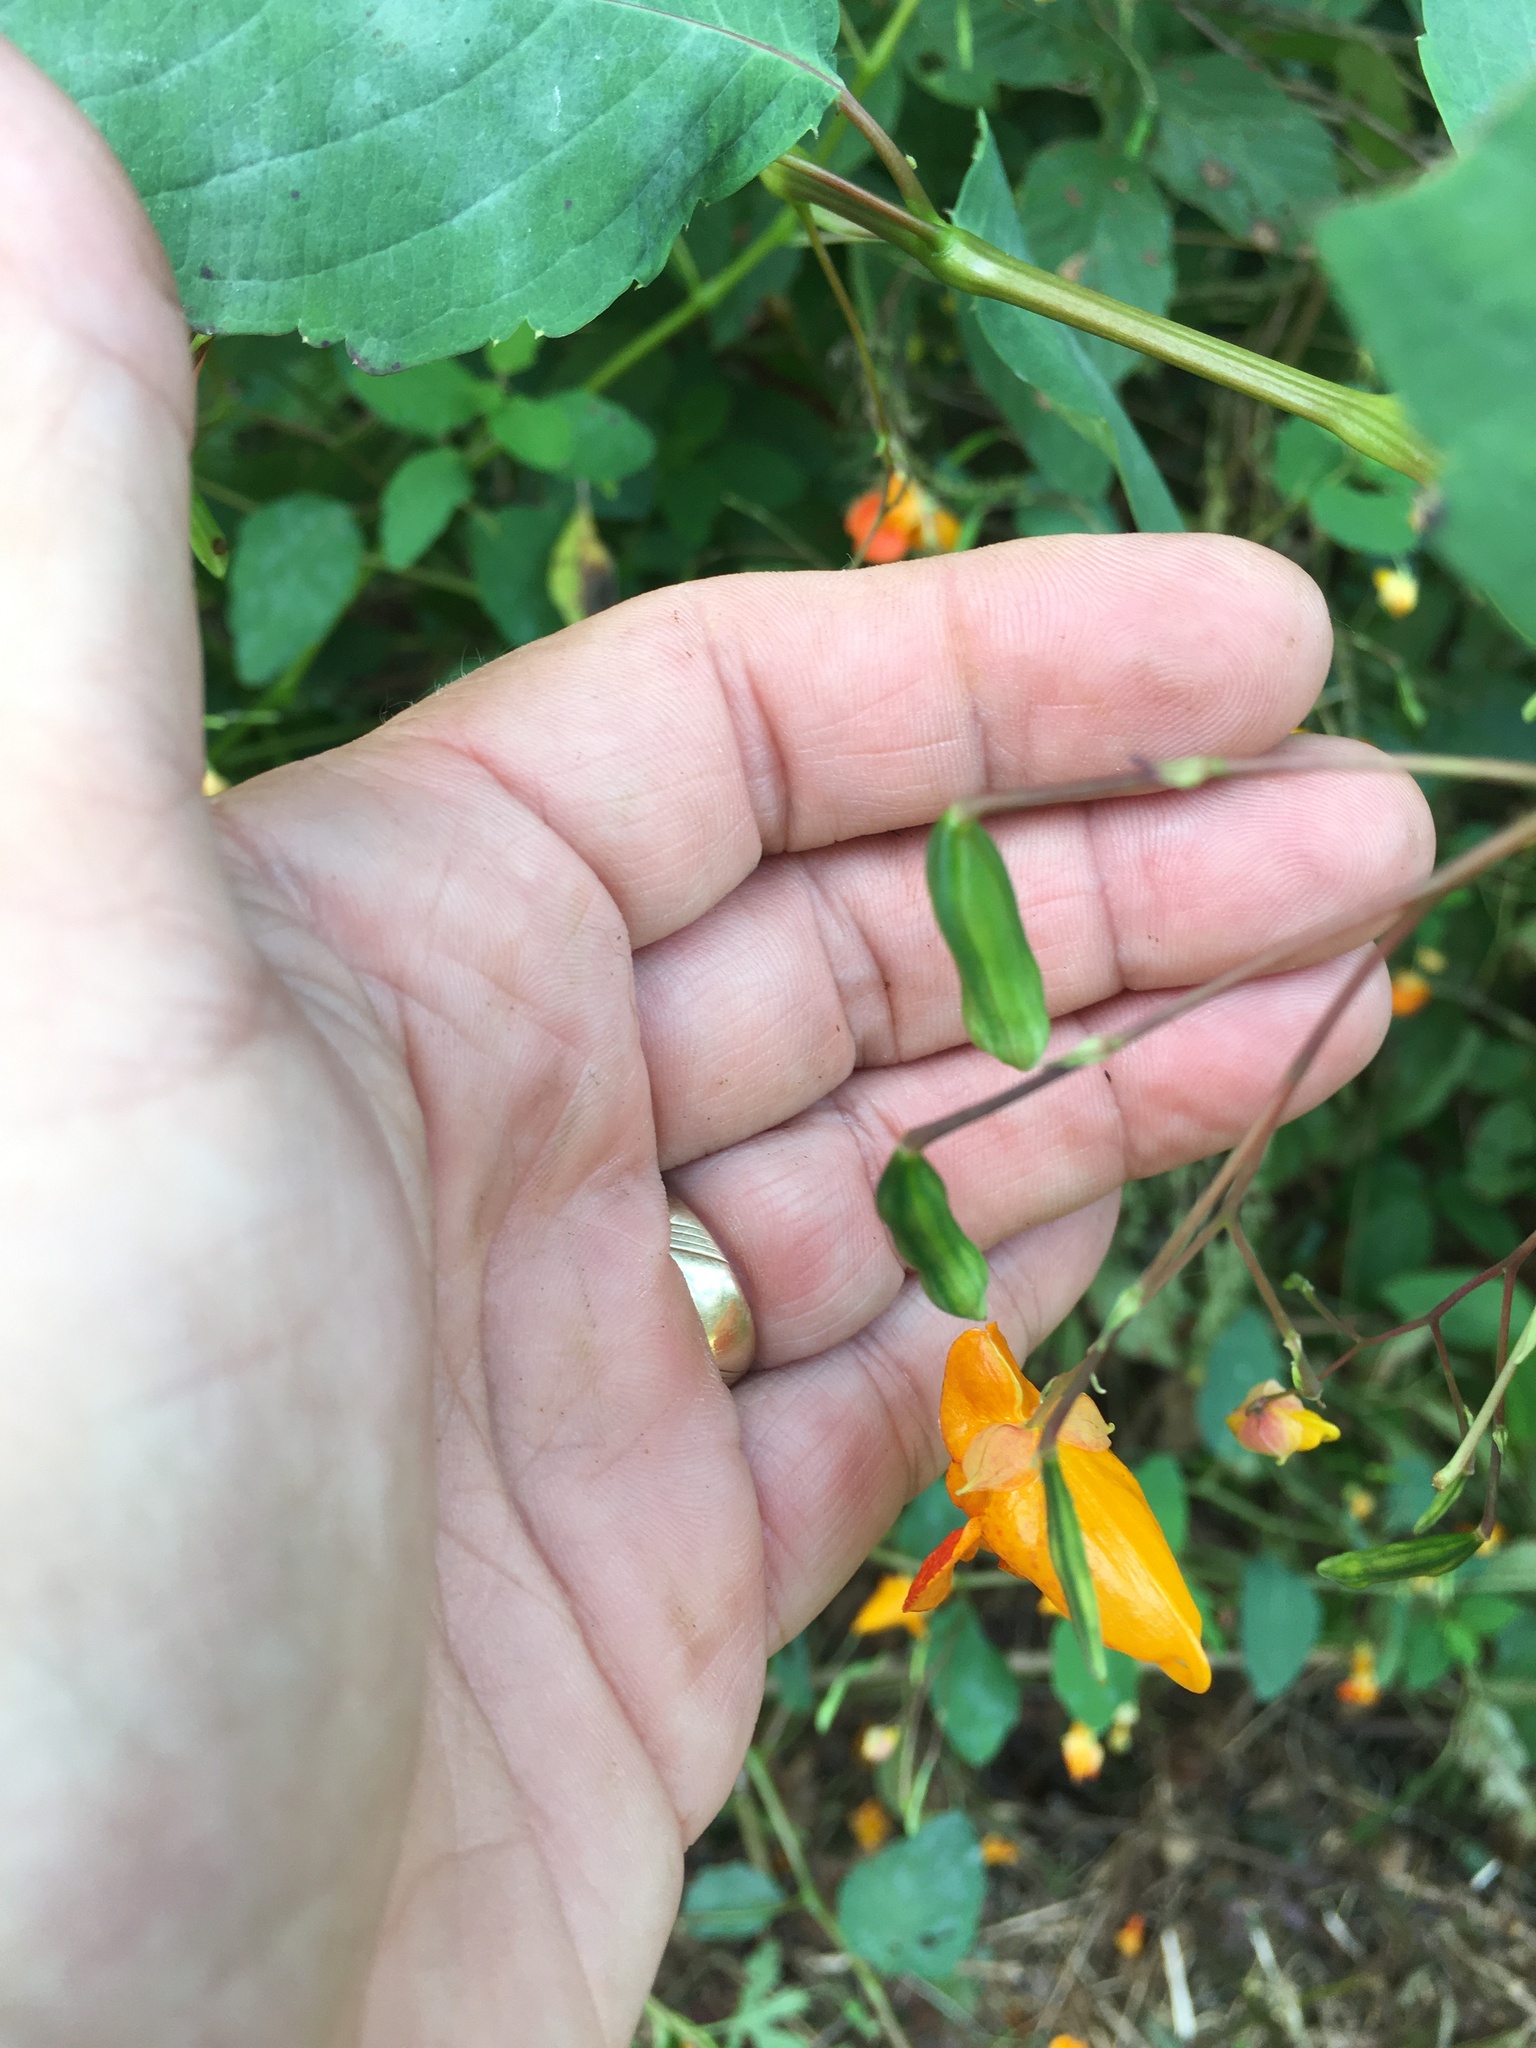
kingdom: Plantae
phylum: Tracheophyta
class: Magnoliopsida
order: Ericales
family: Balsaminaceae
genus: Impatiens
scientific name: Impatiens capensis
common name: Orange balsam
